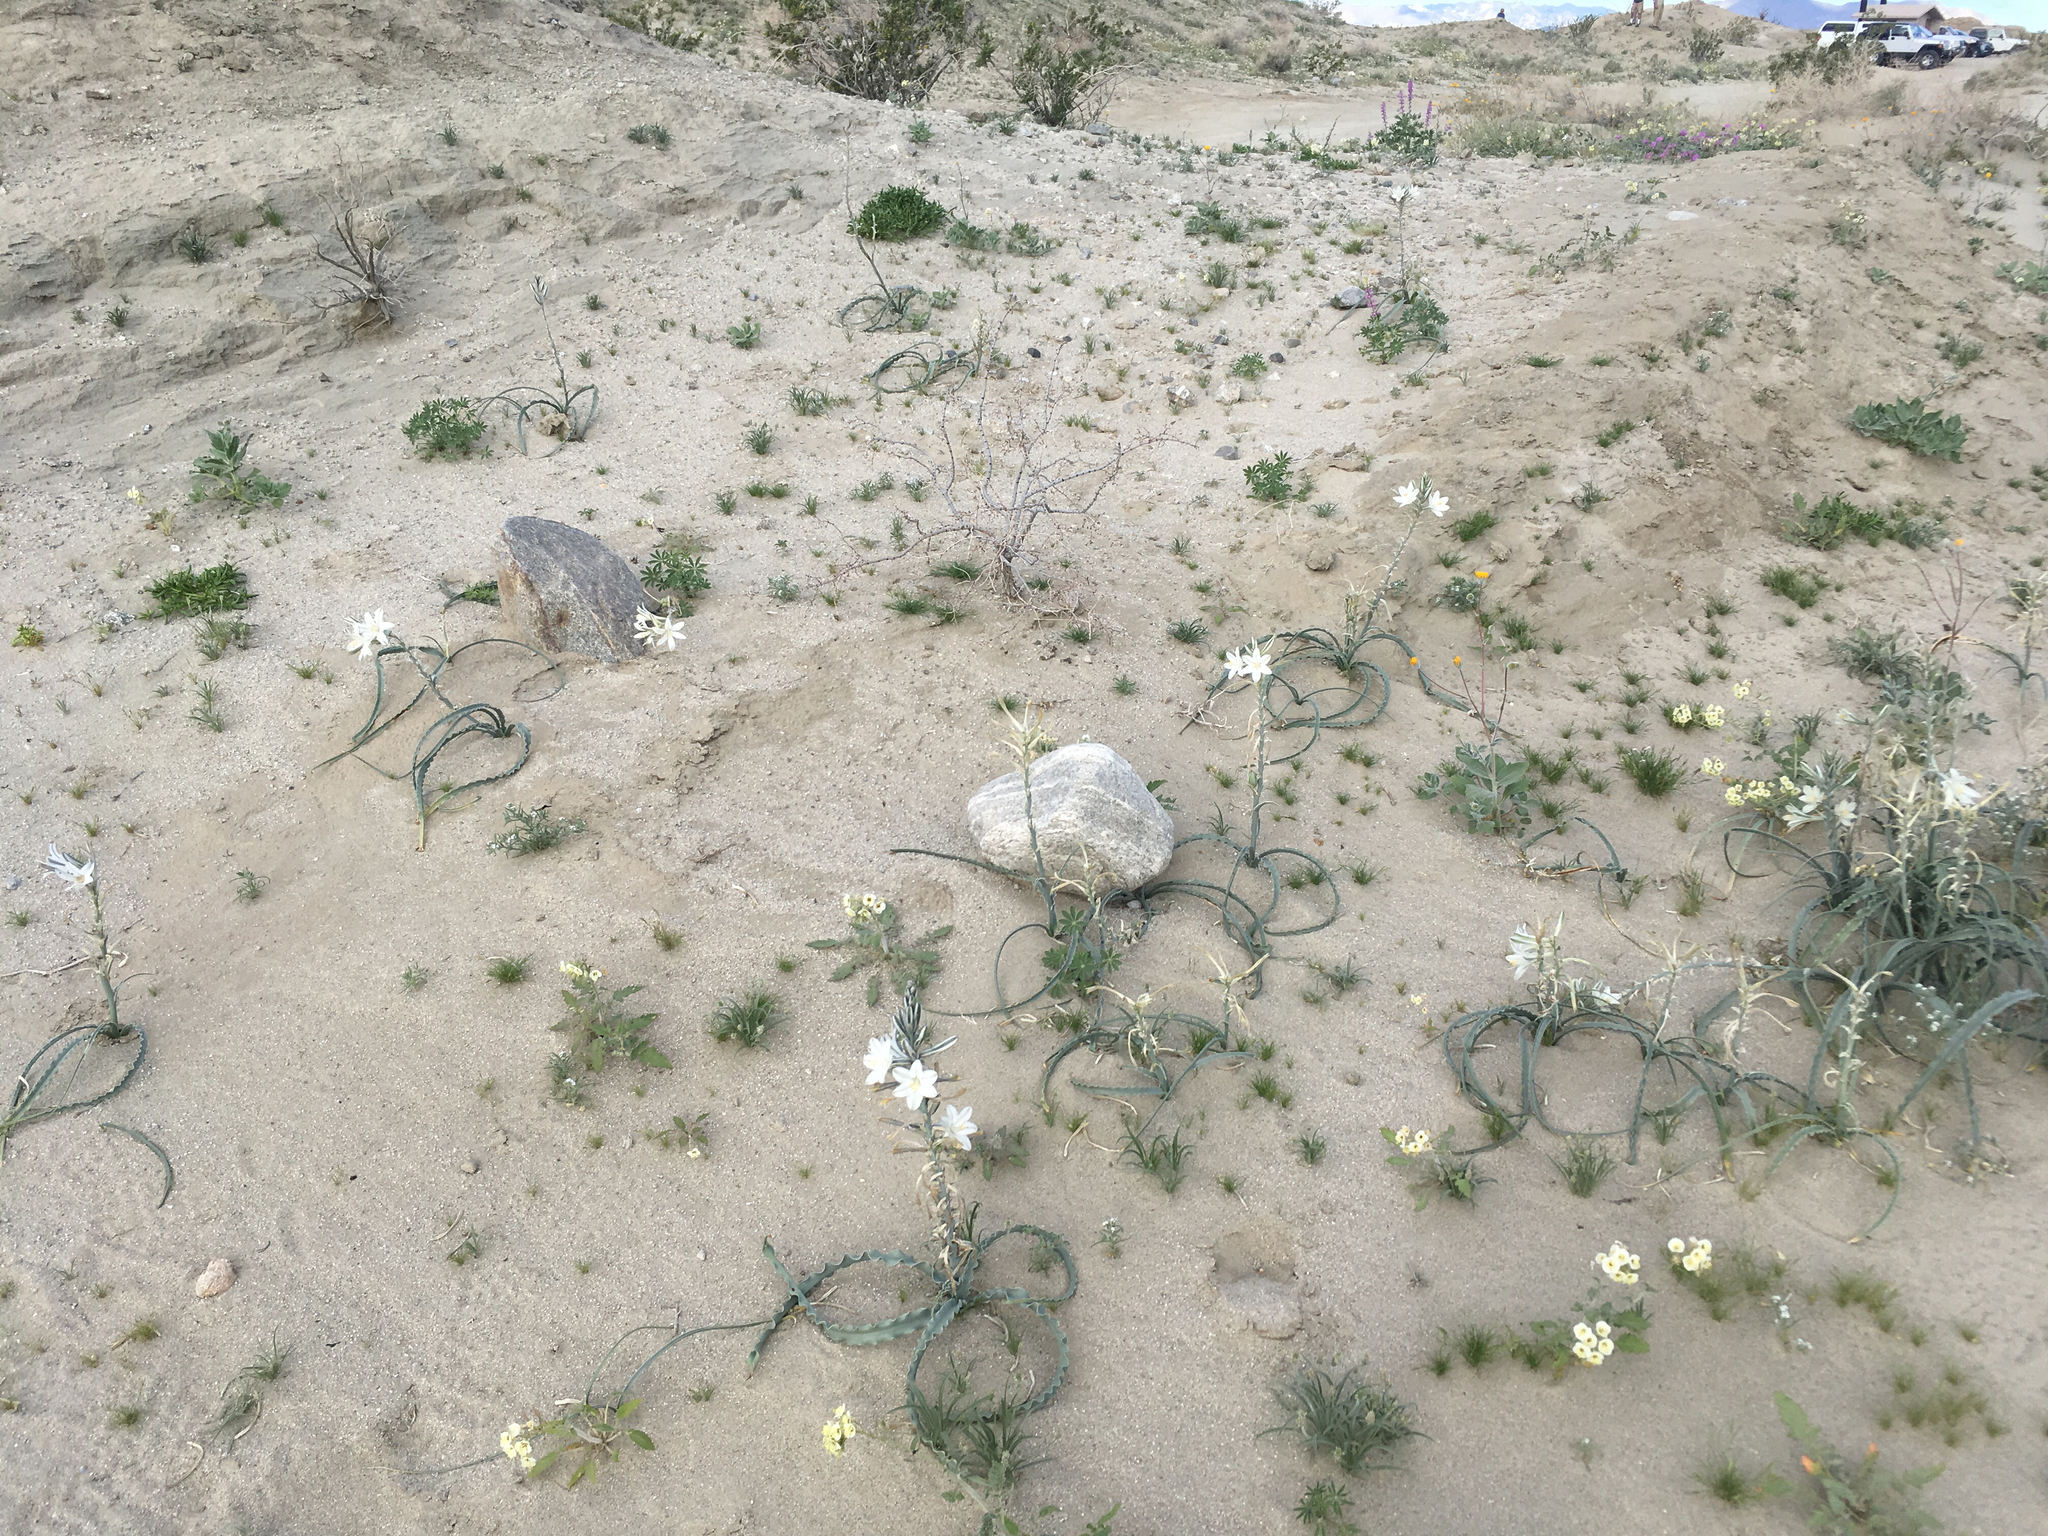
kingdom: Plantae
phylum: Tracheophyta
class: Liliopsida
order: Asparagales
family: Asparagaceae
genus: Hesperocallis
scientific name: Hesperocallis undulata
